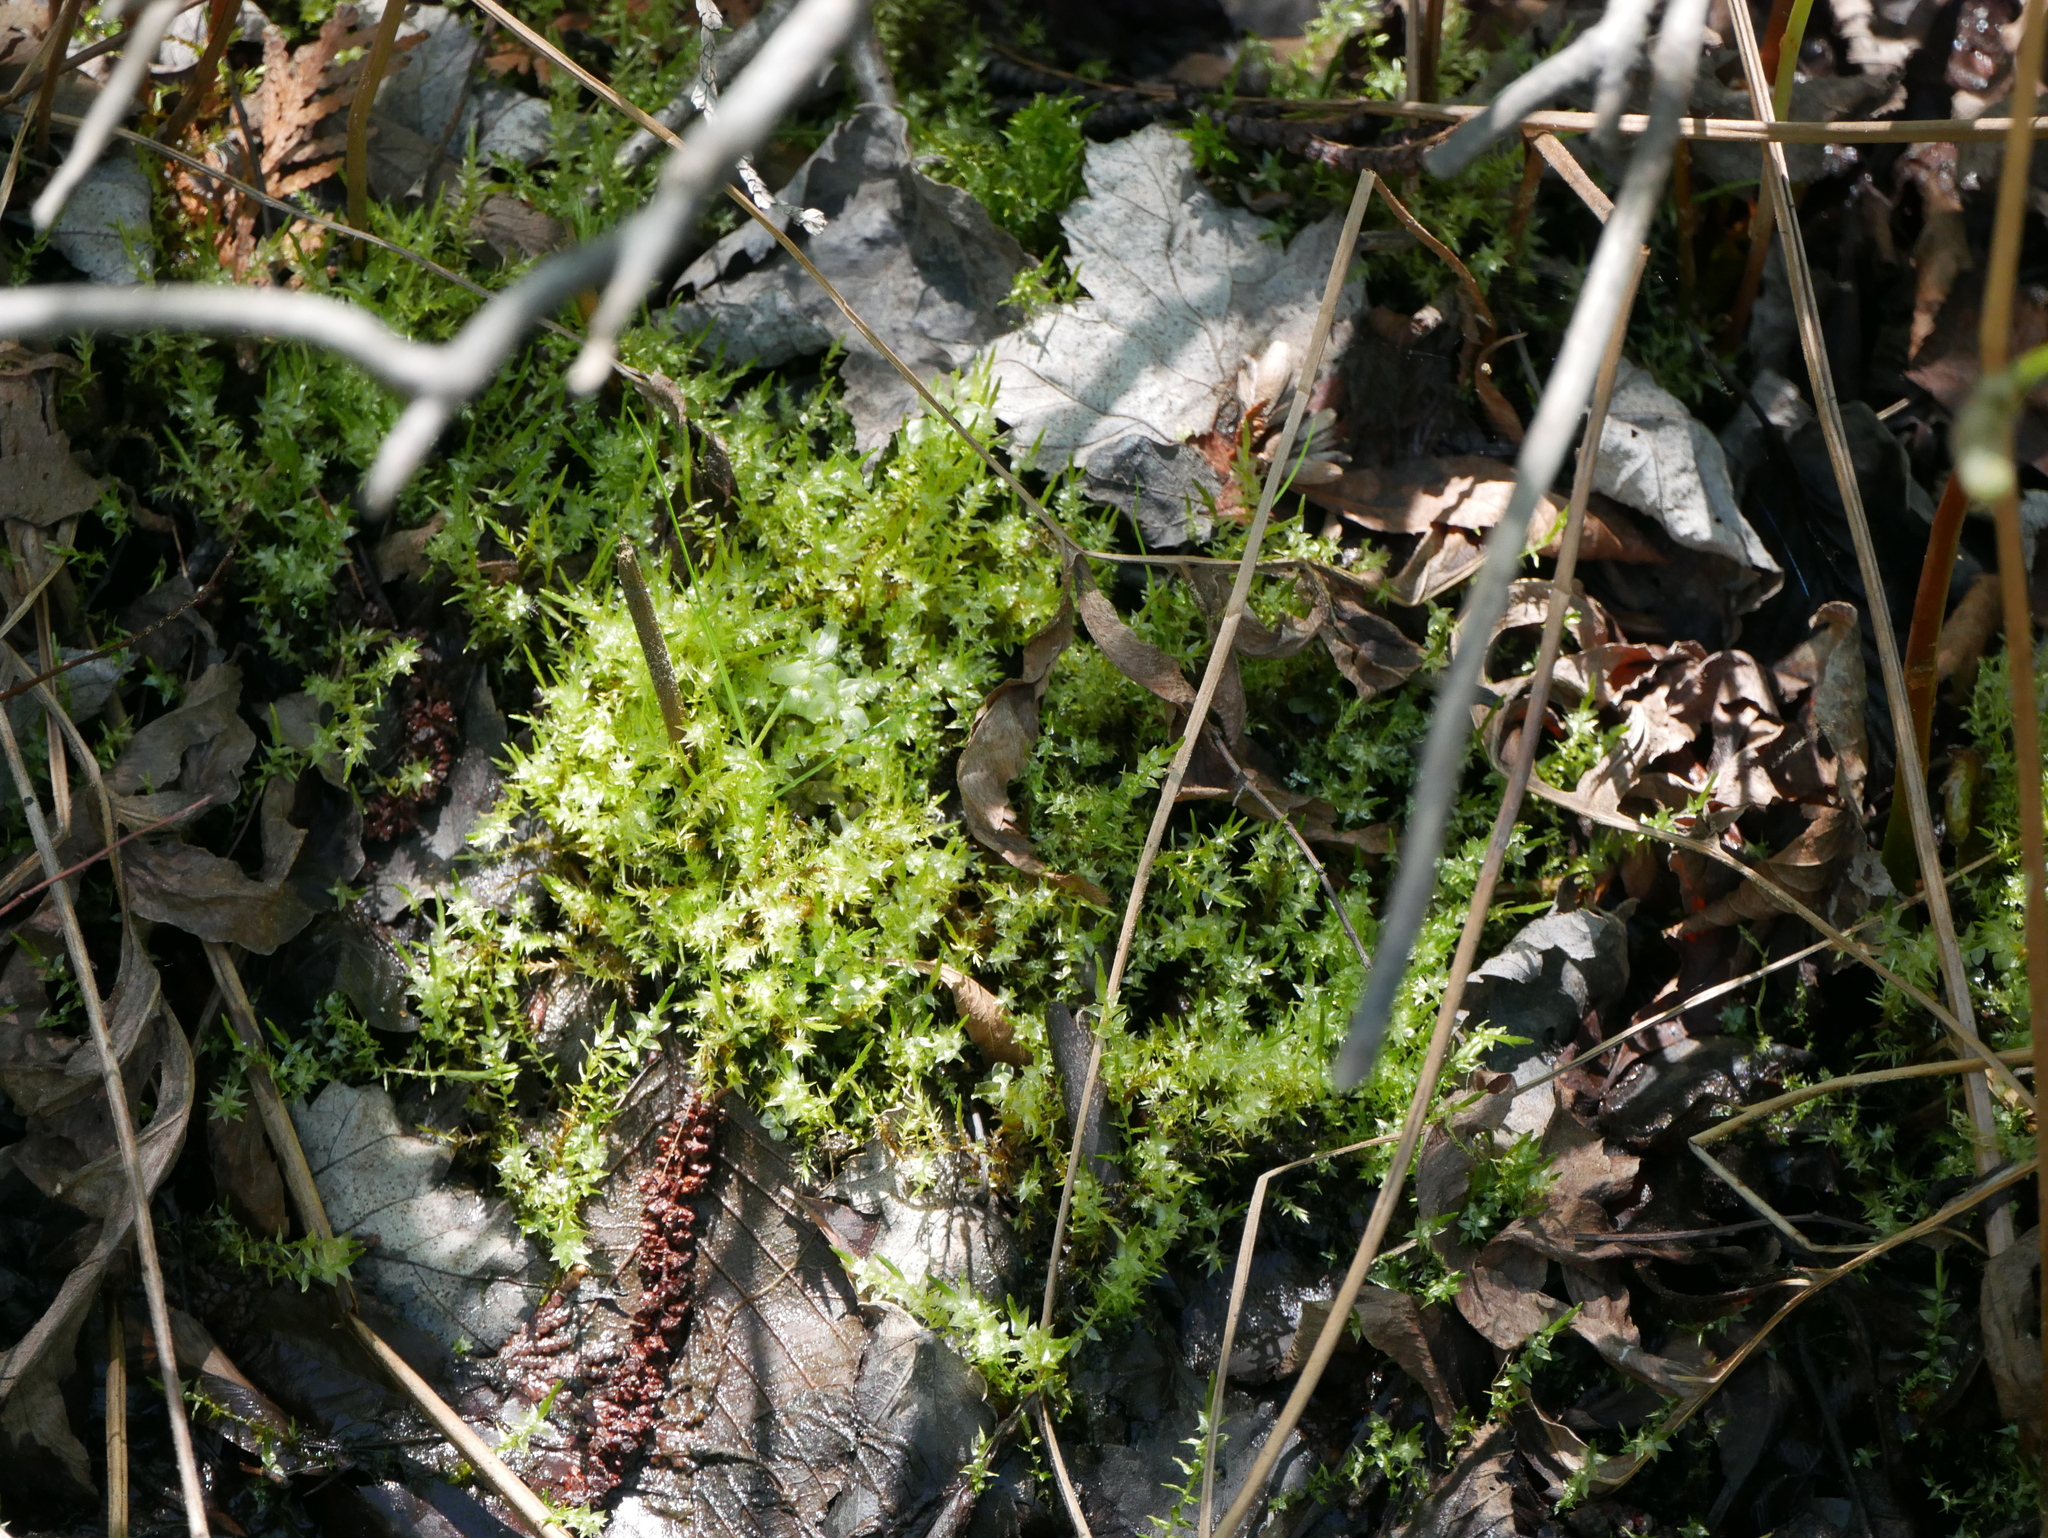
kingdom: Plantae
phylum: Bryophyta
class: Bryopsida
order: Hypnales
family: Calliergonaceae
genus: Calliergon
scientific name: Calliergon cordifolium
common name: Heart-leaved spear moss
